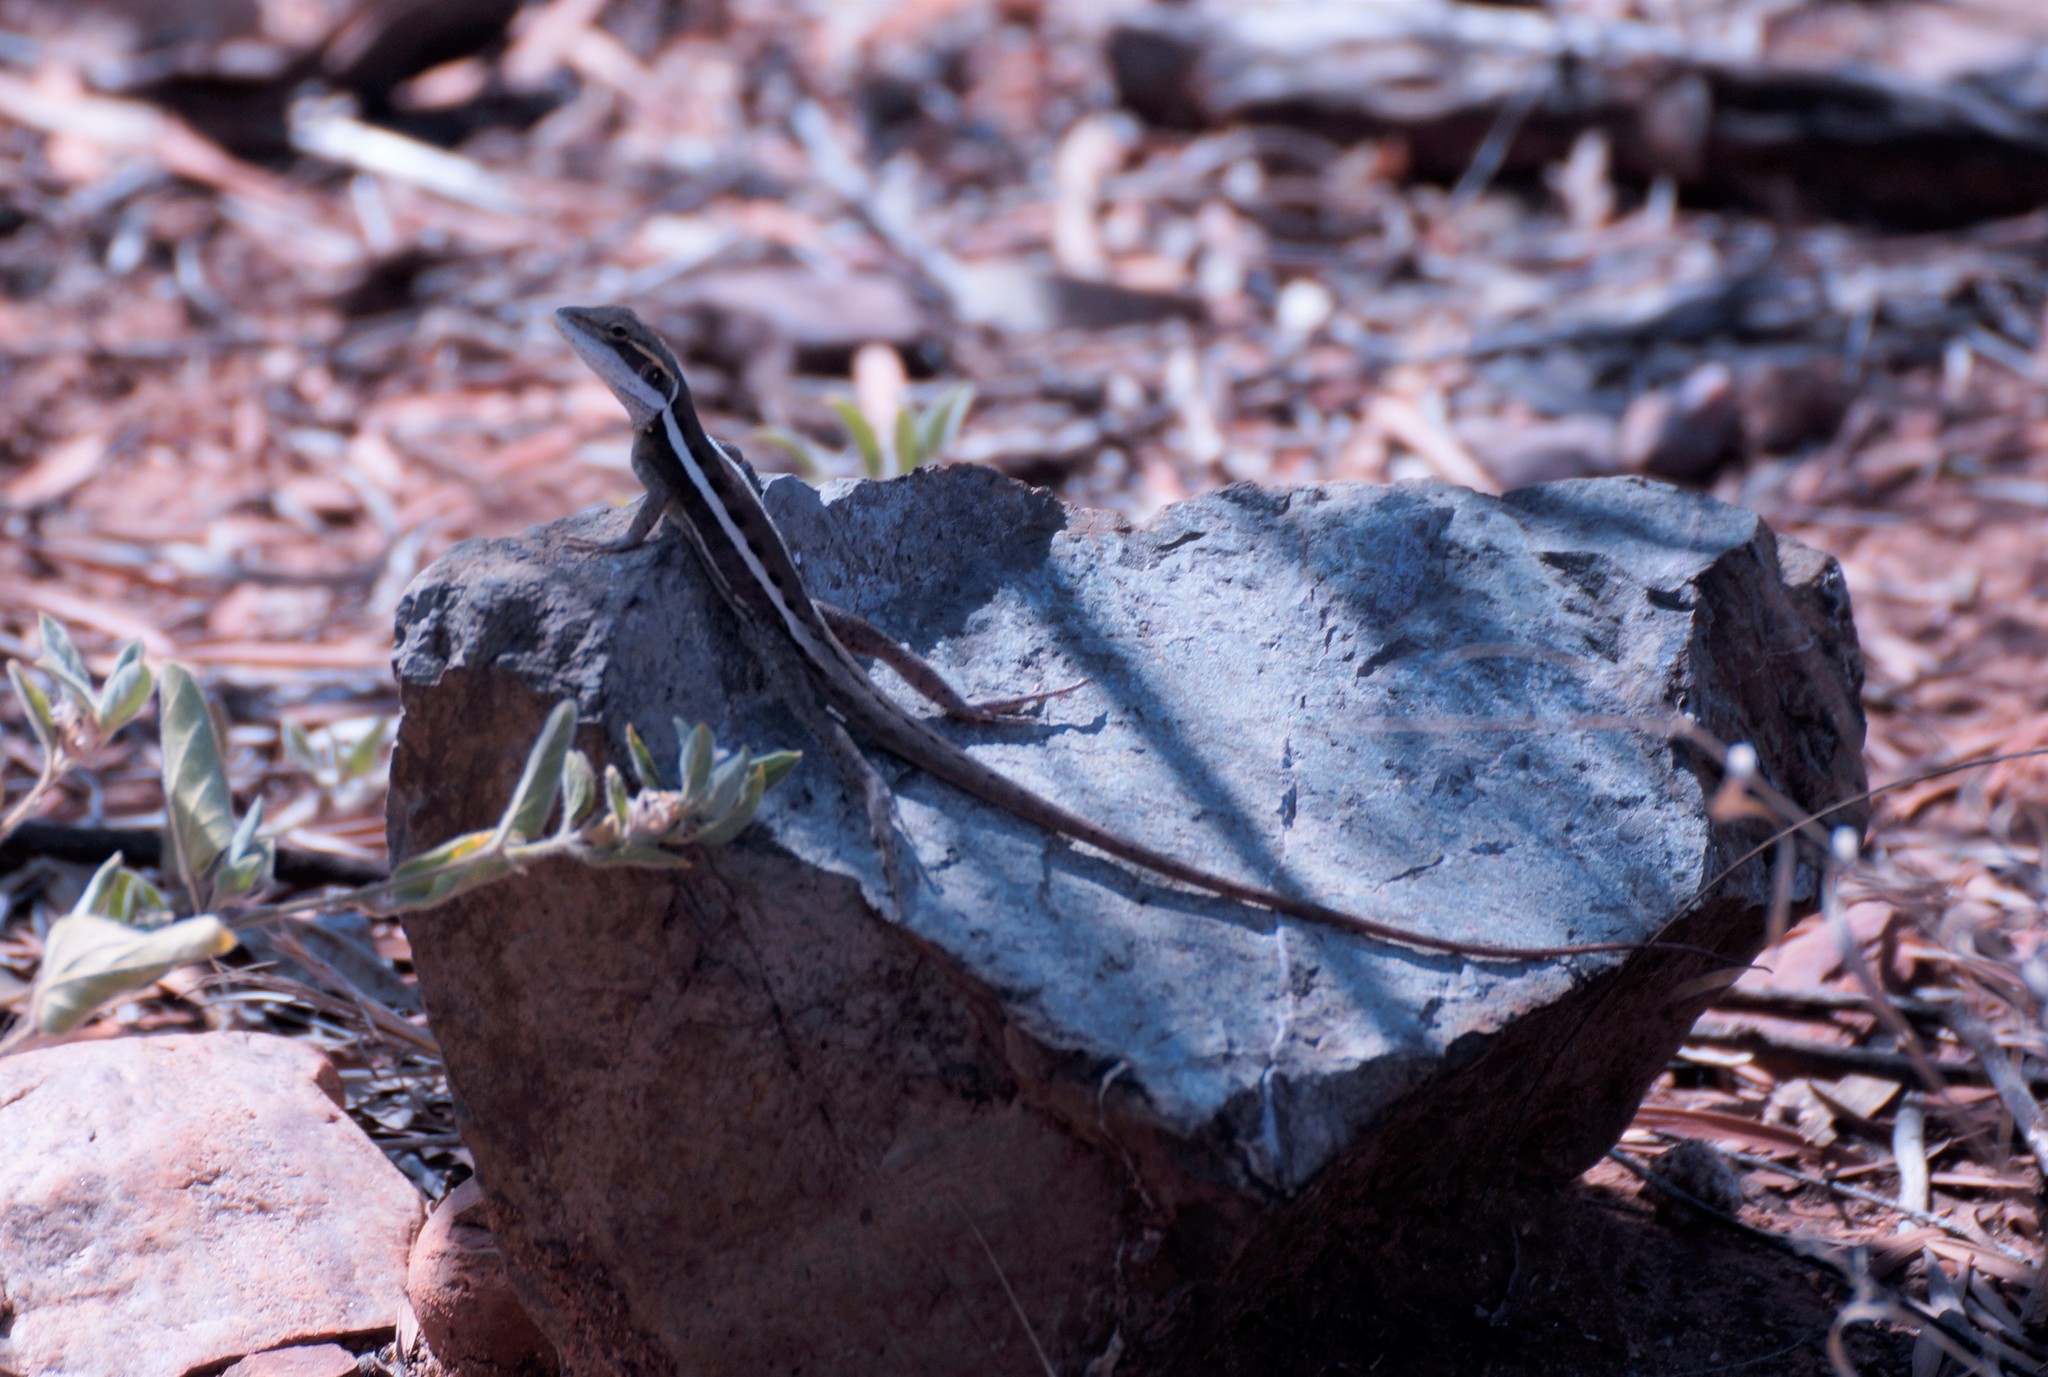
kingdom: Animalia
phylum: Chordata
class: Squamata
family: Agamidae
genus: Lophognathus
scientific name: Lophognathus horneri
